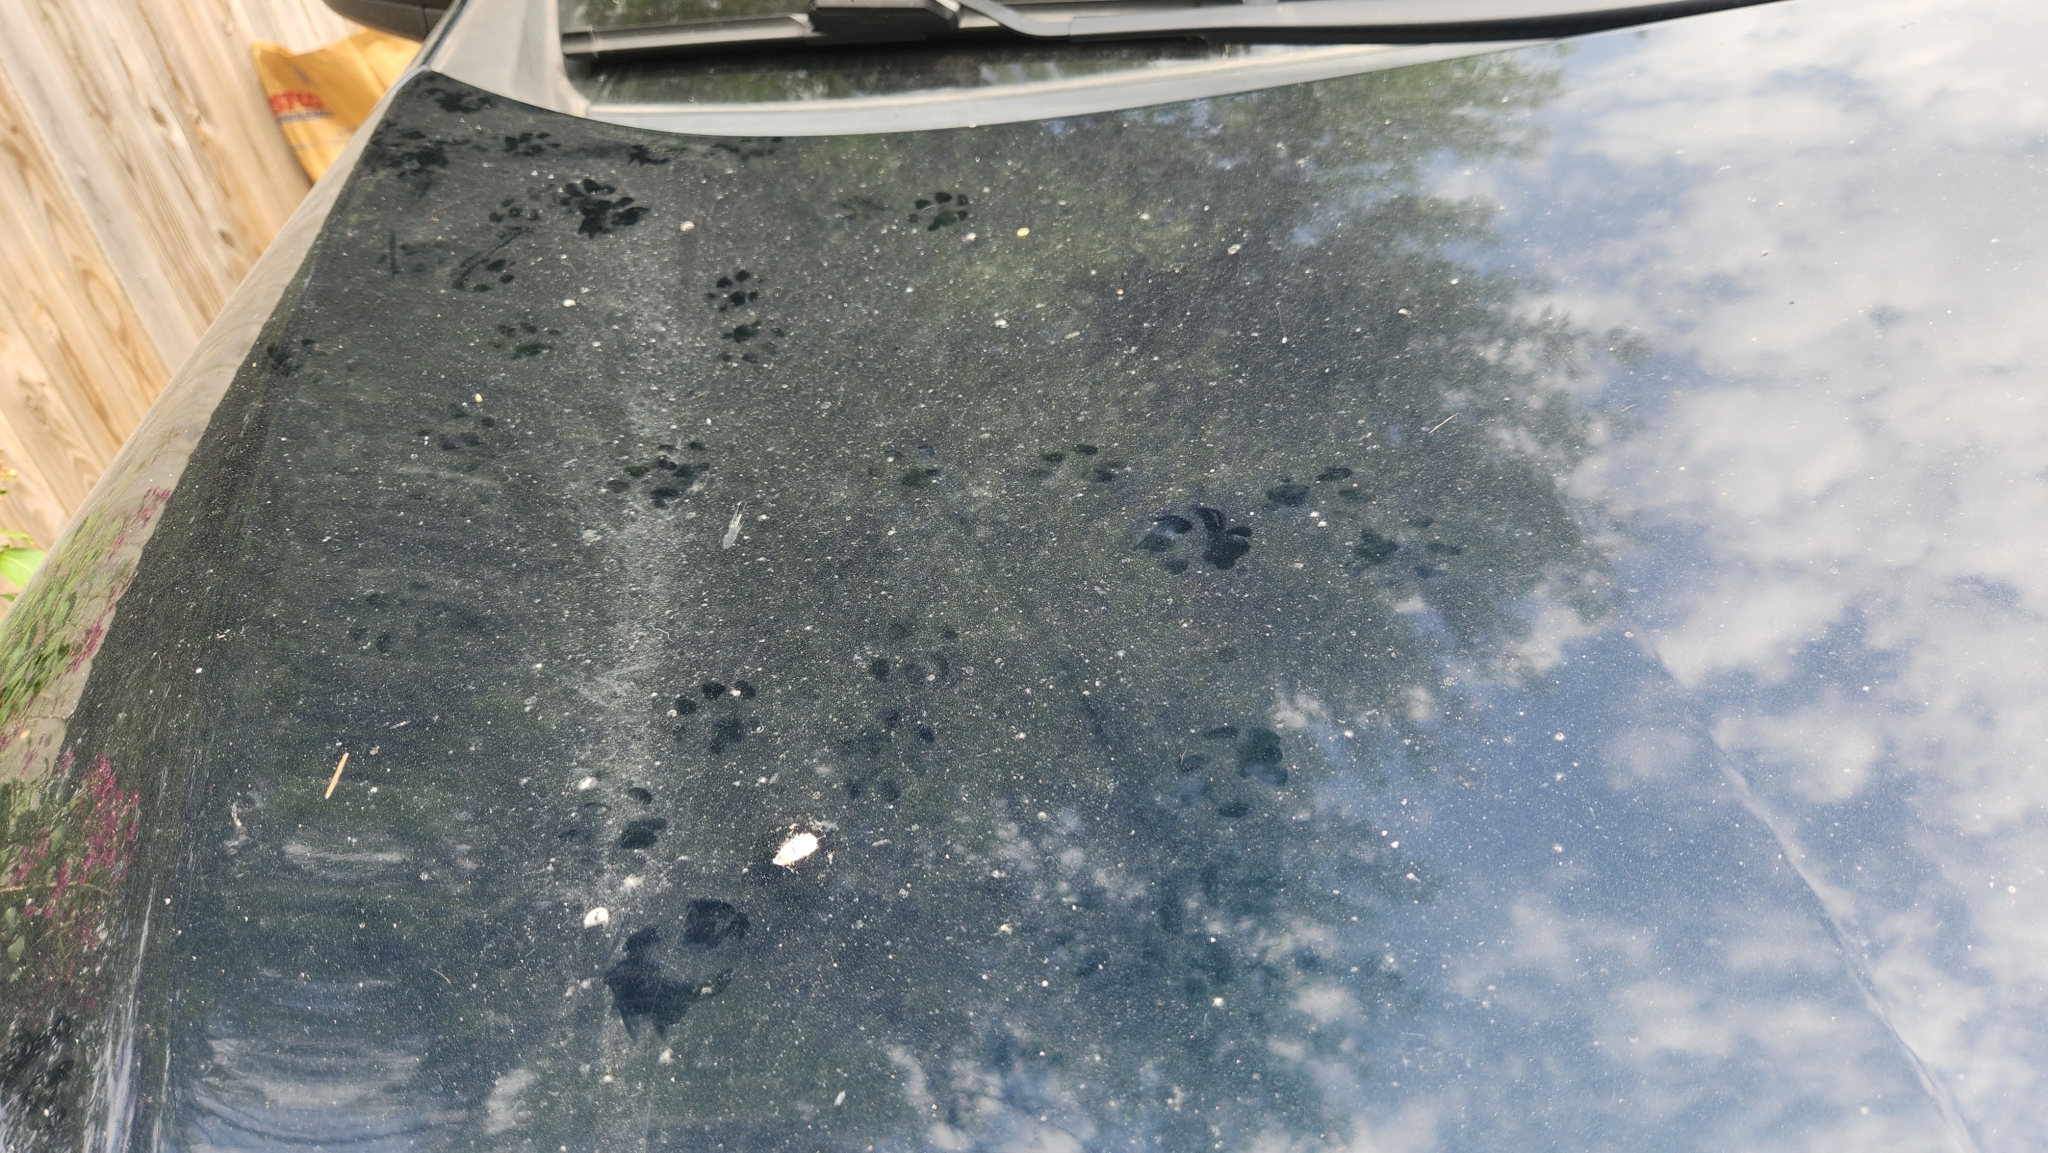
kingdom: Animalia
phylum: Chordata
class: Mammalia
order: Carnivora
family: Felidae
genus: Felis
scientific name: Felis catus
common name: Domestic cat
